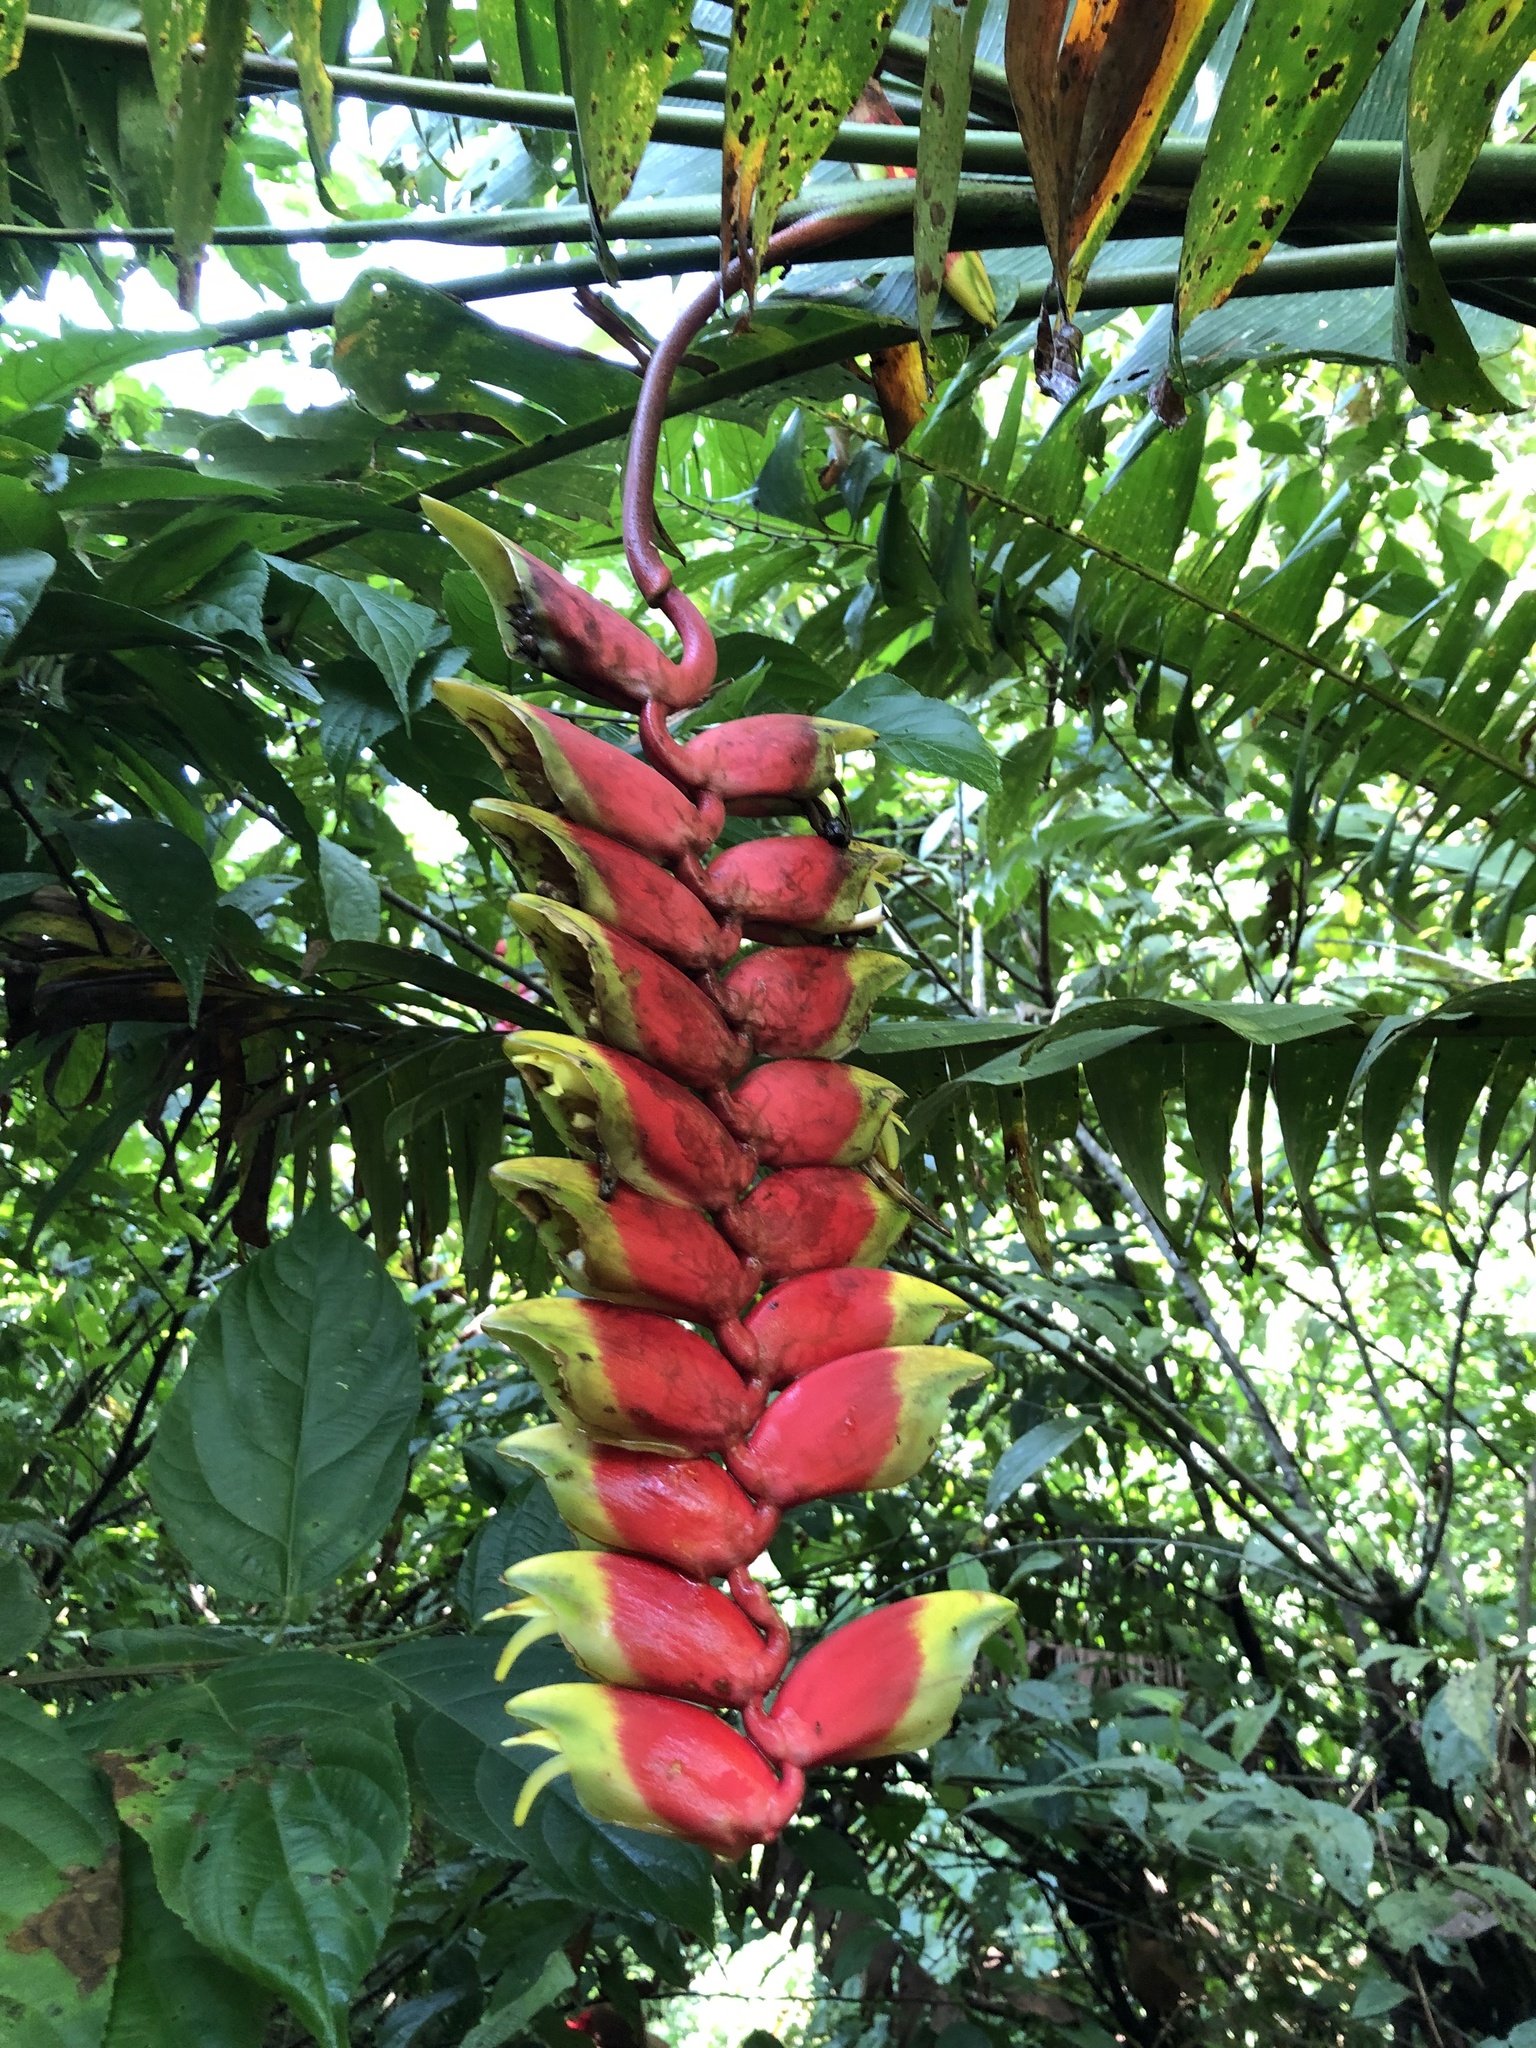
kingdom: Plantae
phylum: Tracheophyta
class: Liliopsida
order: Zingiberales
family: Heliconiaceae
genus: Heliconia
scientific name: Heliconia rostrata
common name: False bird of paradise
